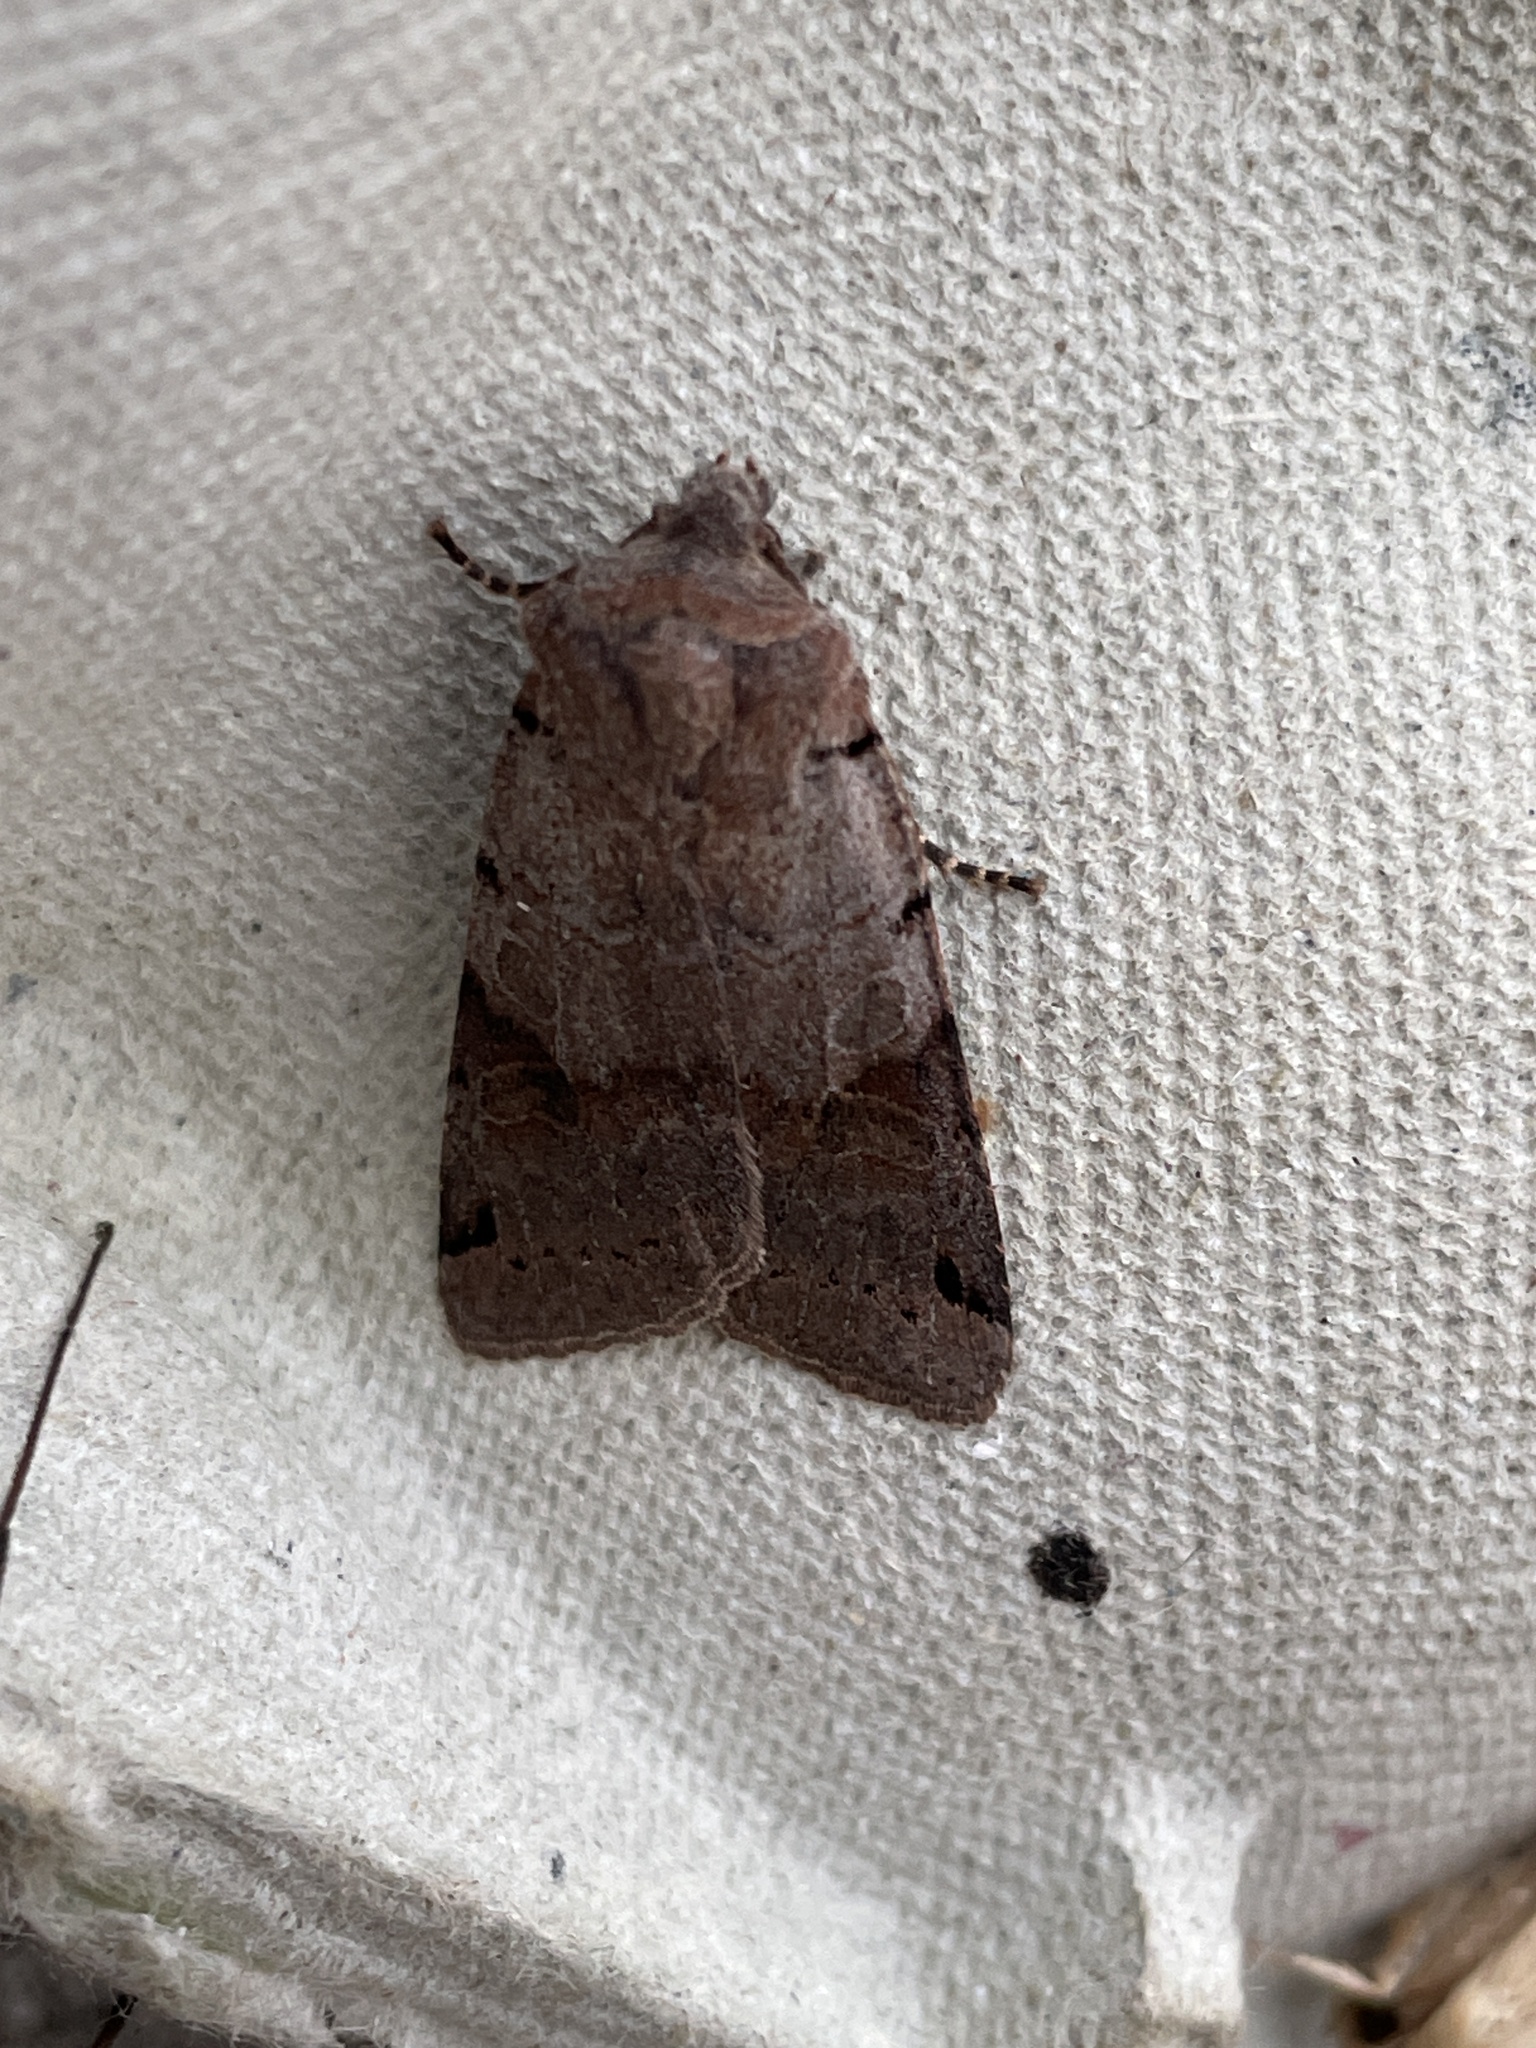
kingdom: Animalia
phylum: Arthropoda
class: Insecta
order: Lepidoptera
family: Noctuidae
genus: Agrochola
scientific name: Agrochola litura
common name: Brown-spot pinion
